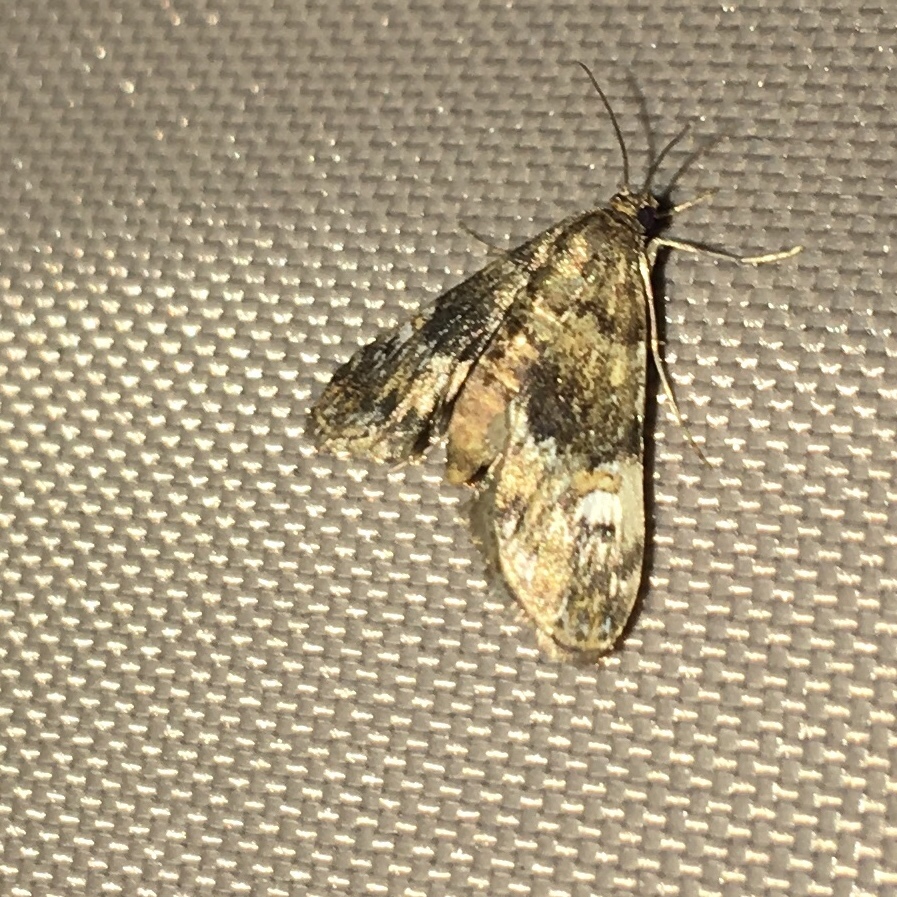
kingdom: Animalia
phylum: Arthropoda
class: Insecta
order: Lepidoptera
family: Crambidae
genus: Elophila
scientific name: Elophila obliteralis
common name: Waterlily leafcutter moth
